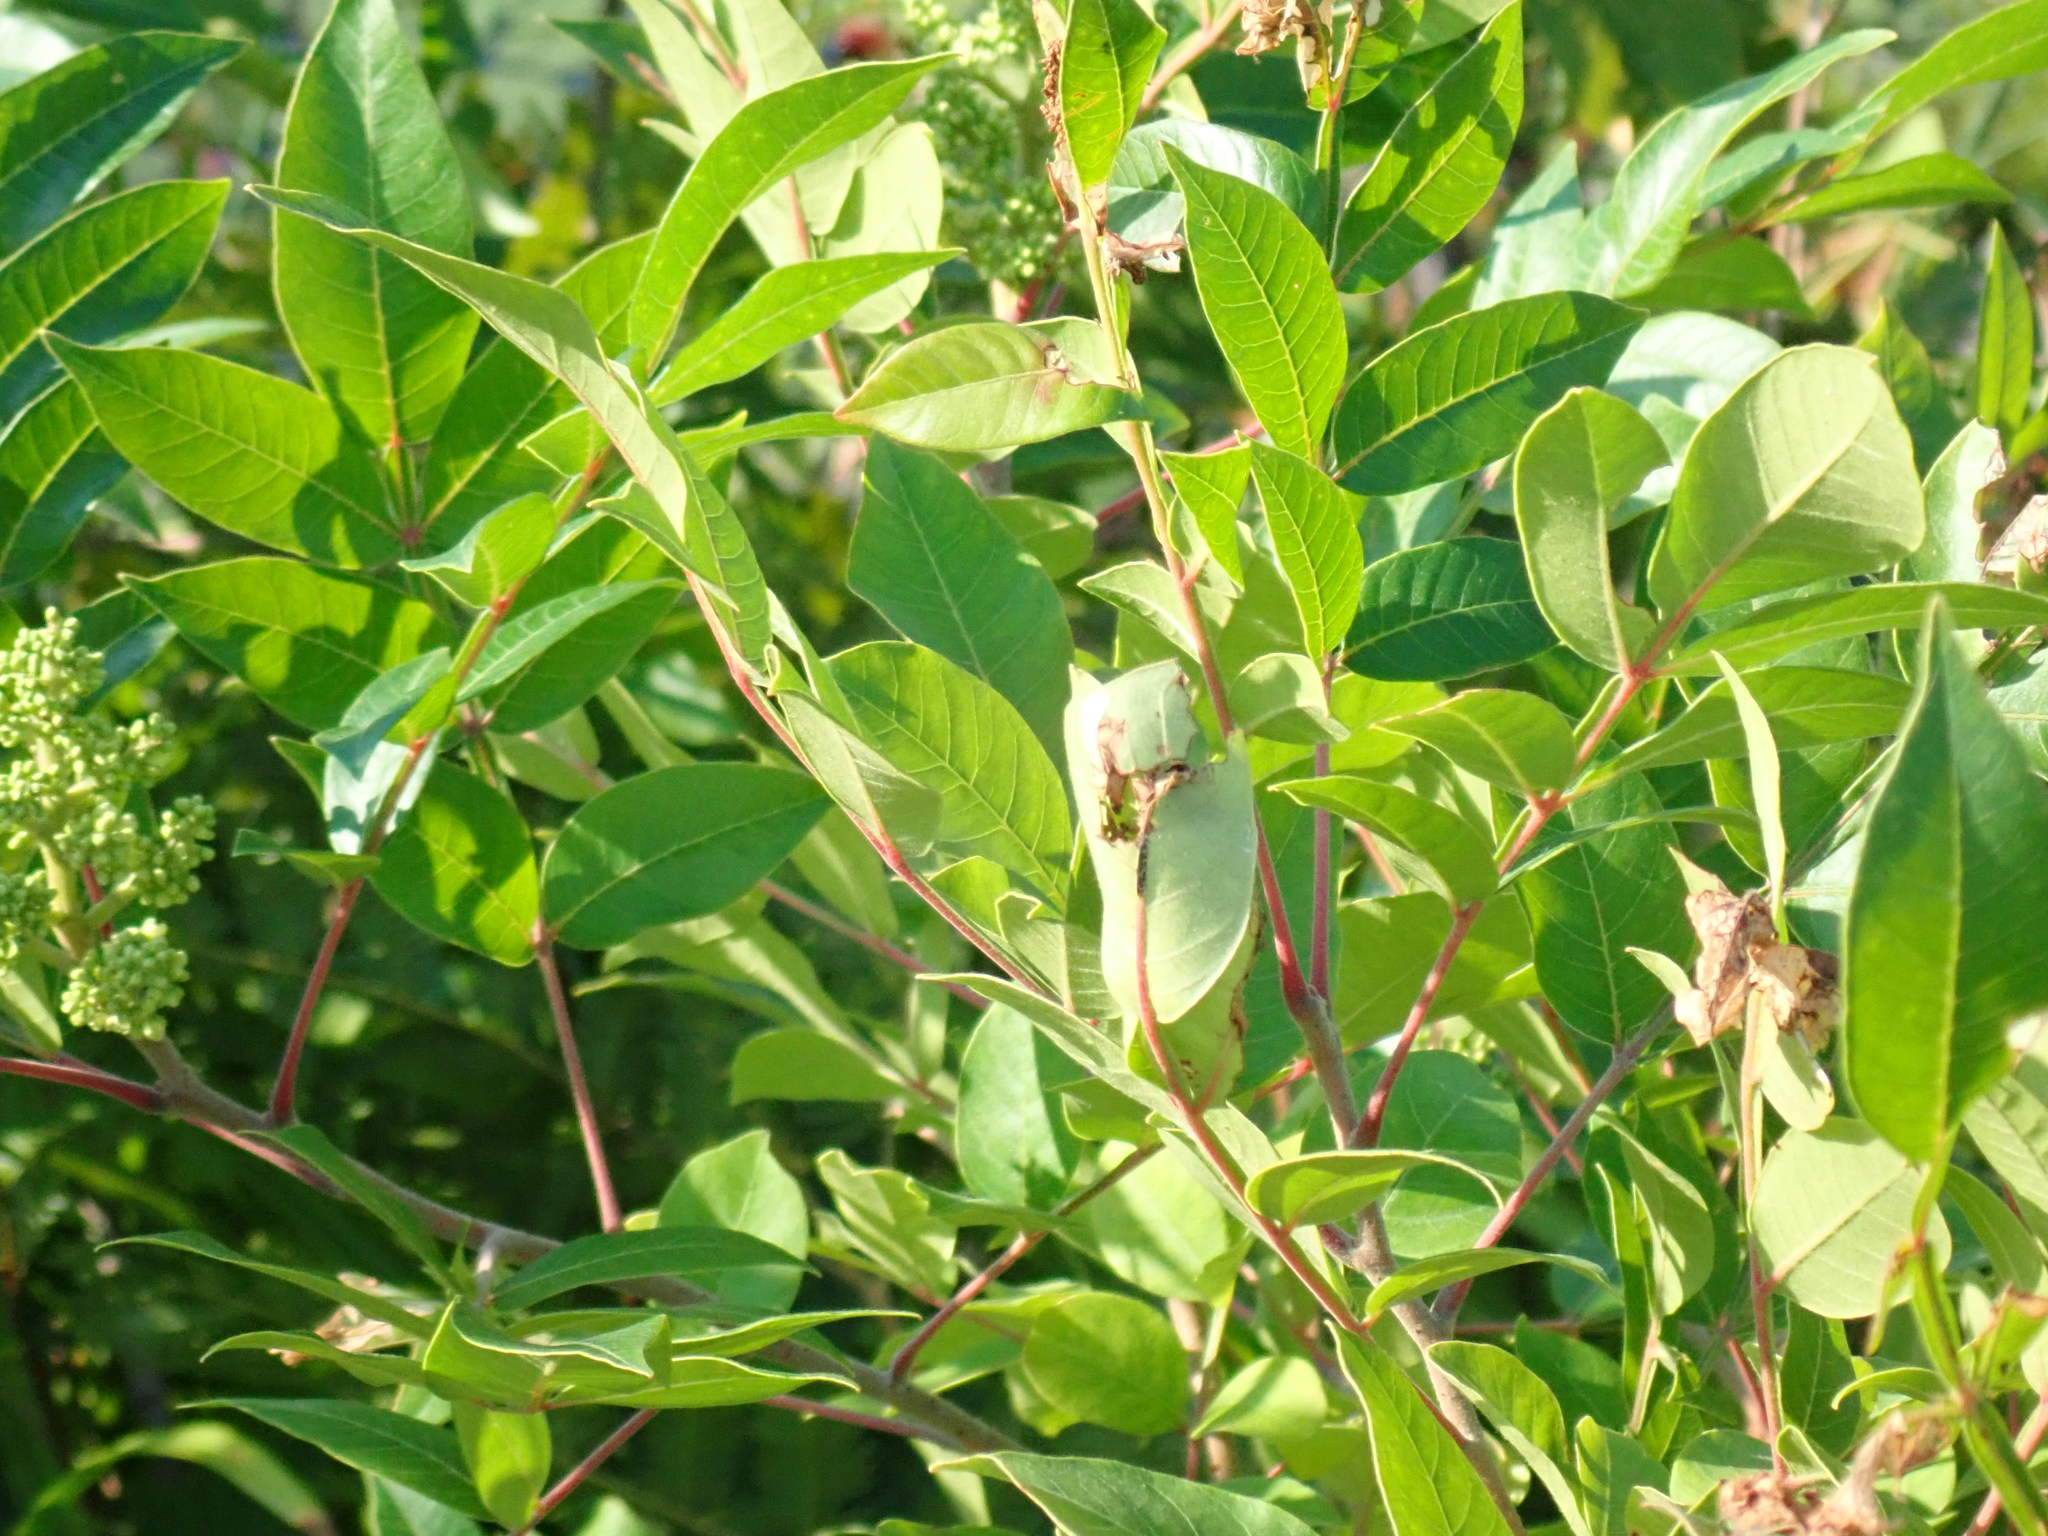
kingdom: Plantae
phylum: Tracheophyta
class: Magnoliopsida
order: Sapindales
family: Anacardiaceae
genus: Rhus
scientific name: Rhus copallina
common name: Shining sumac
